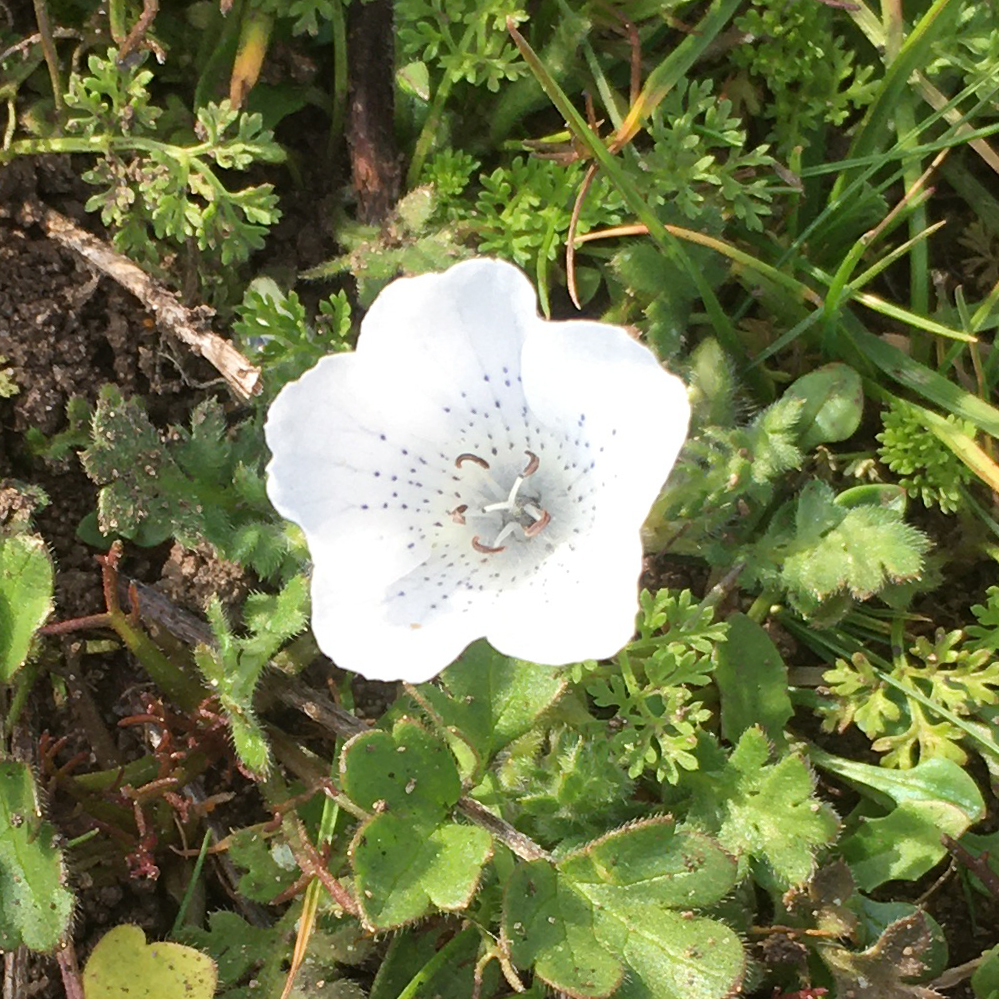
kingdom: Plantae
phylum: Tracheophyta
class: Magnoliopsida
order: Boraginales
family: Hydrophyllaceae
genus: Nemophila
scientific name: Nemophila menziesii
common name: Baby's-blue-eyes
